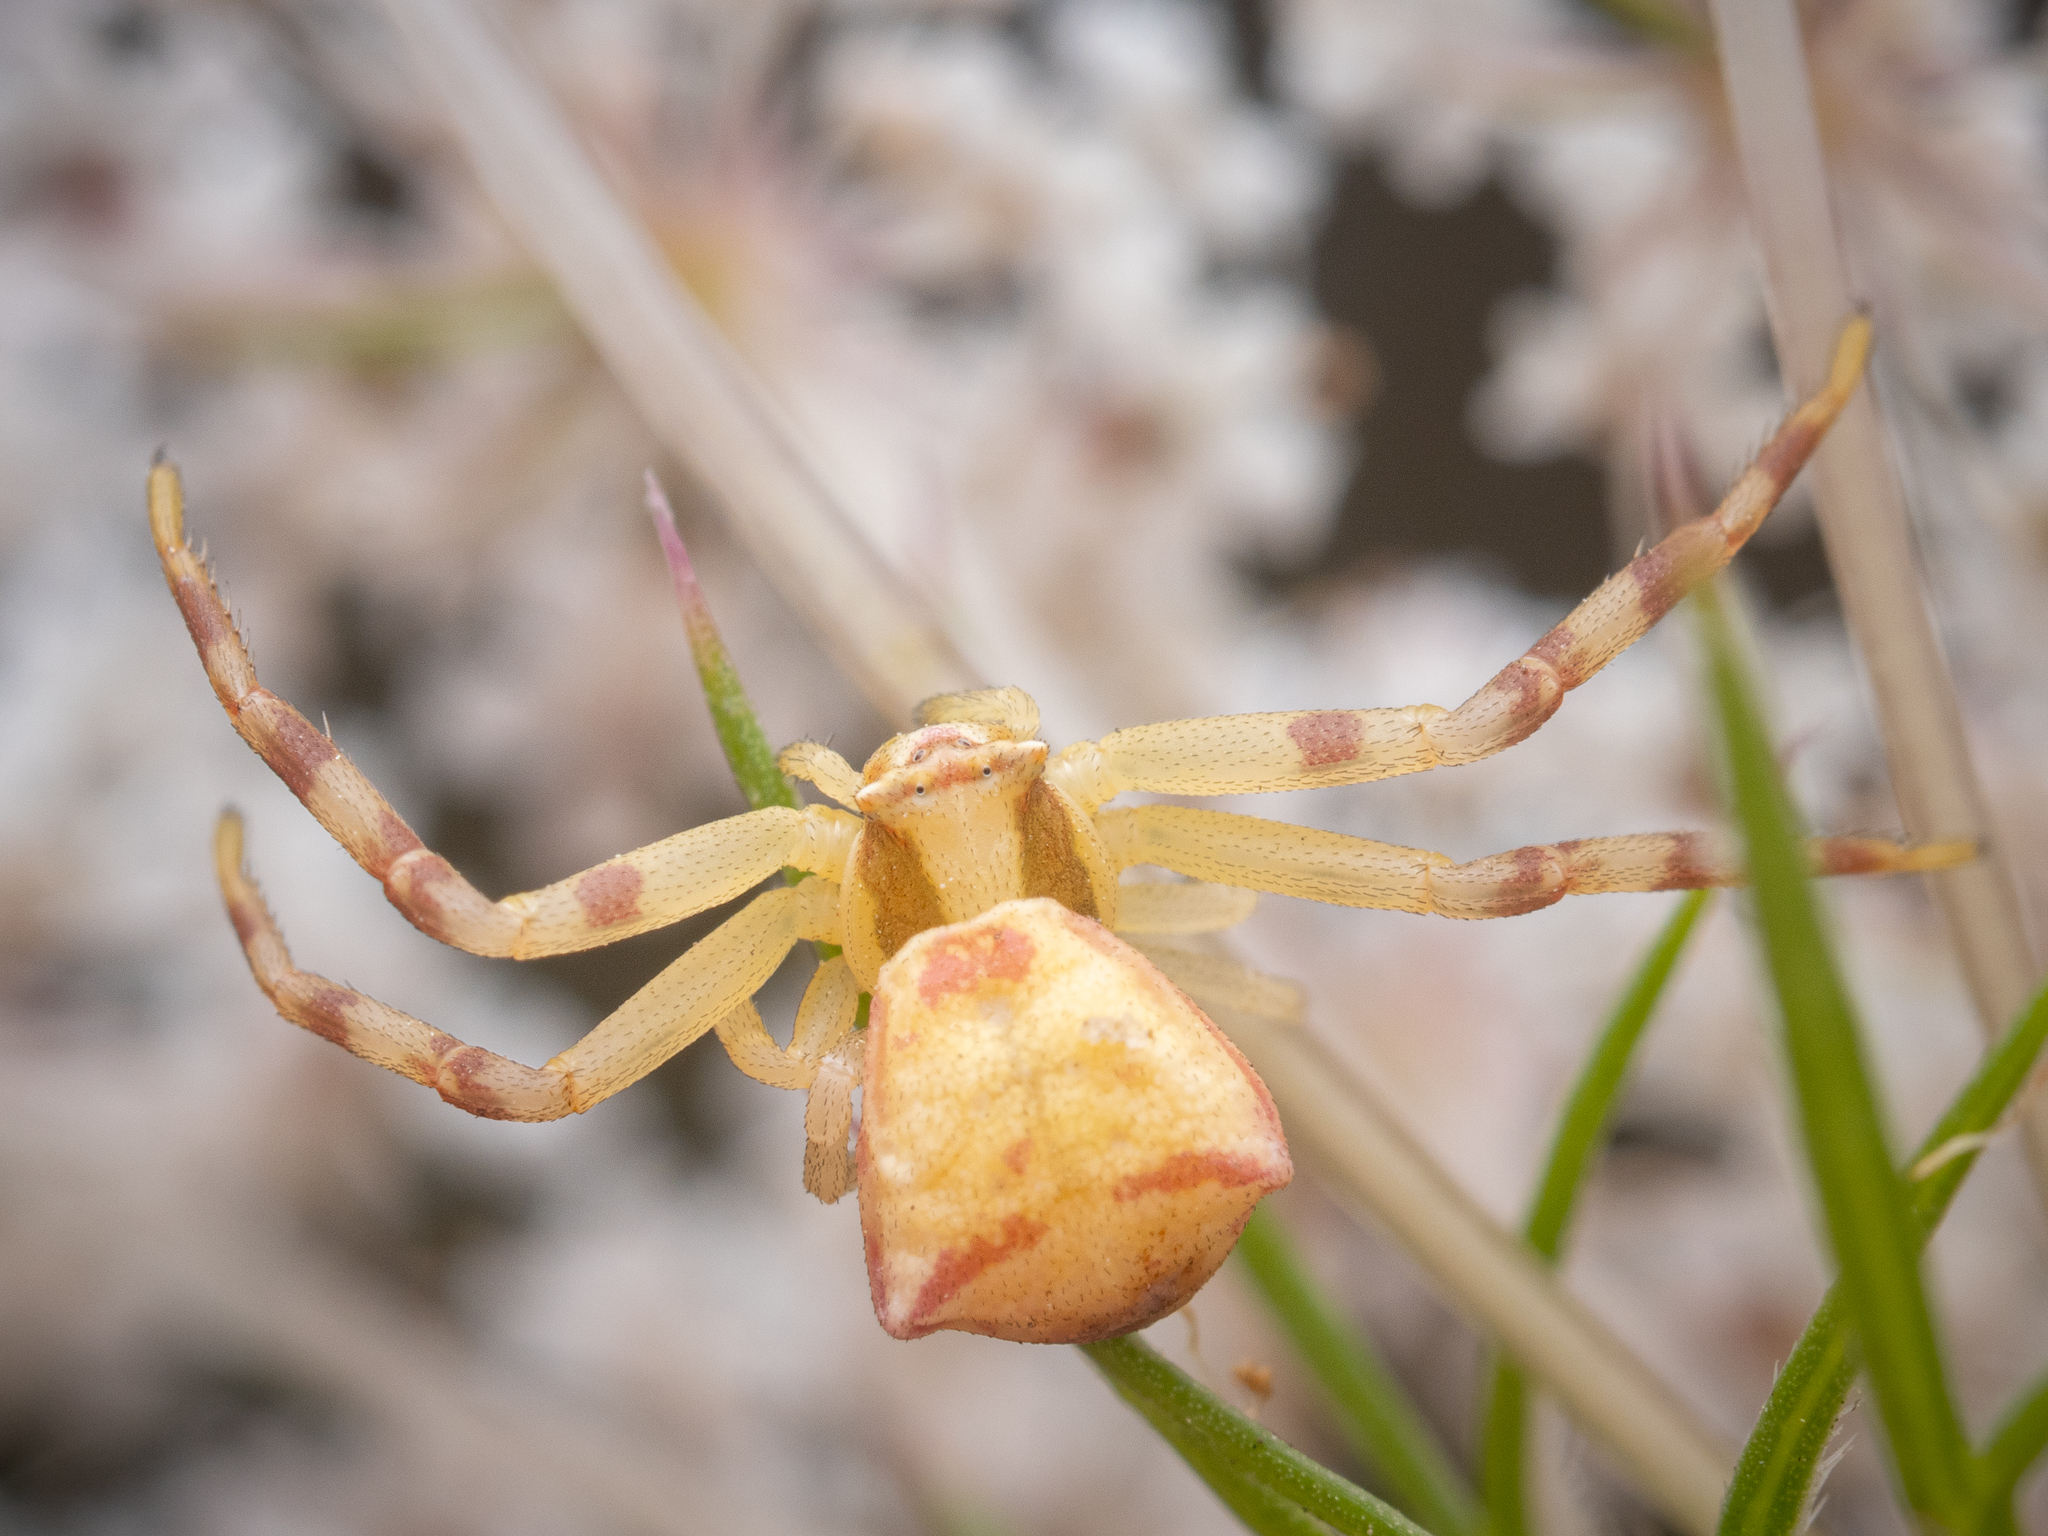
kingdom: Animalia
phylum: Arthropoda
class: Arachnida
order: Araneae
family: Thomisidae
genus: Thomisus
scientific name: Thomisus onustus
